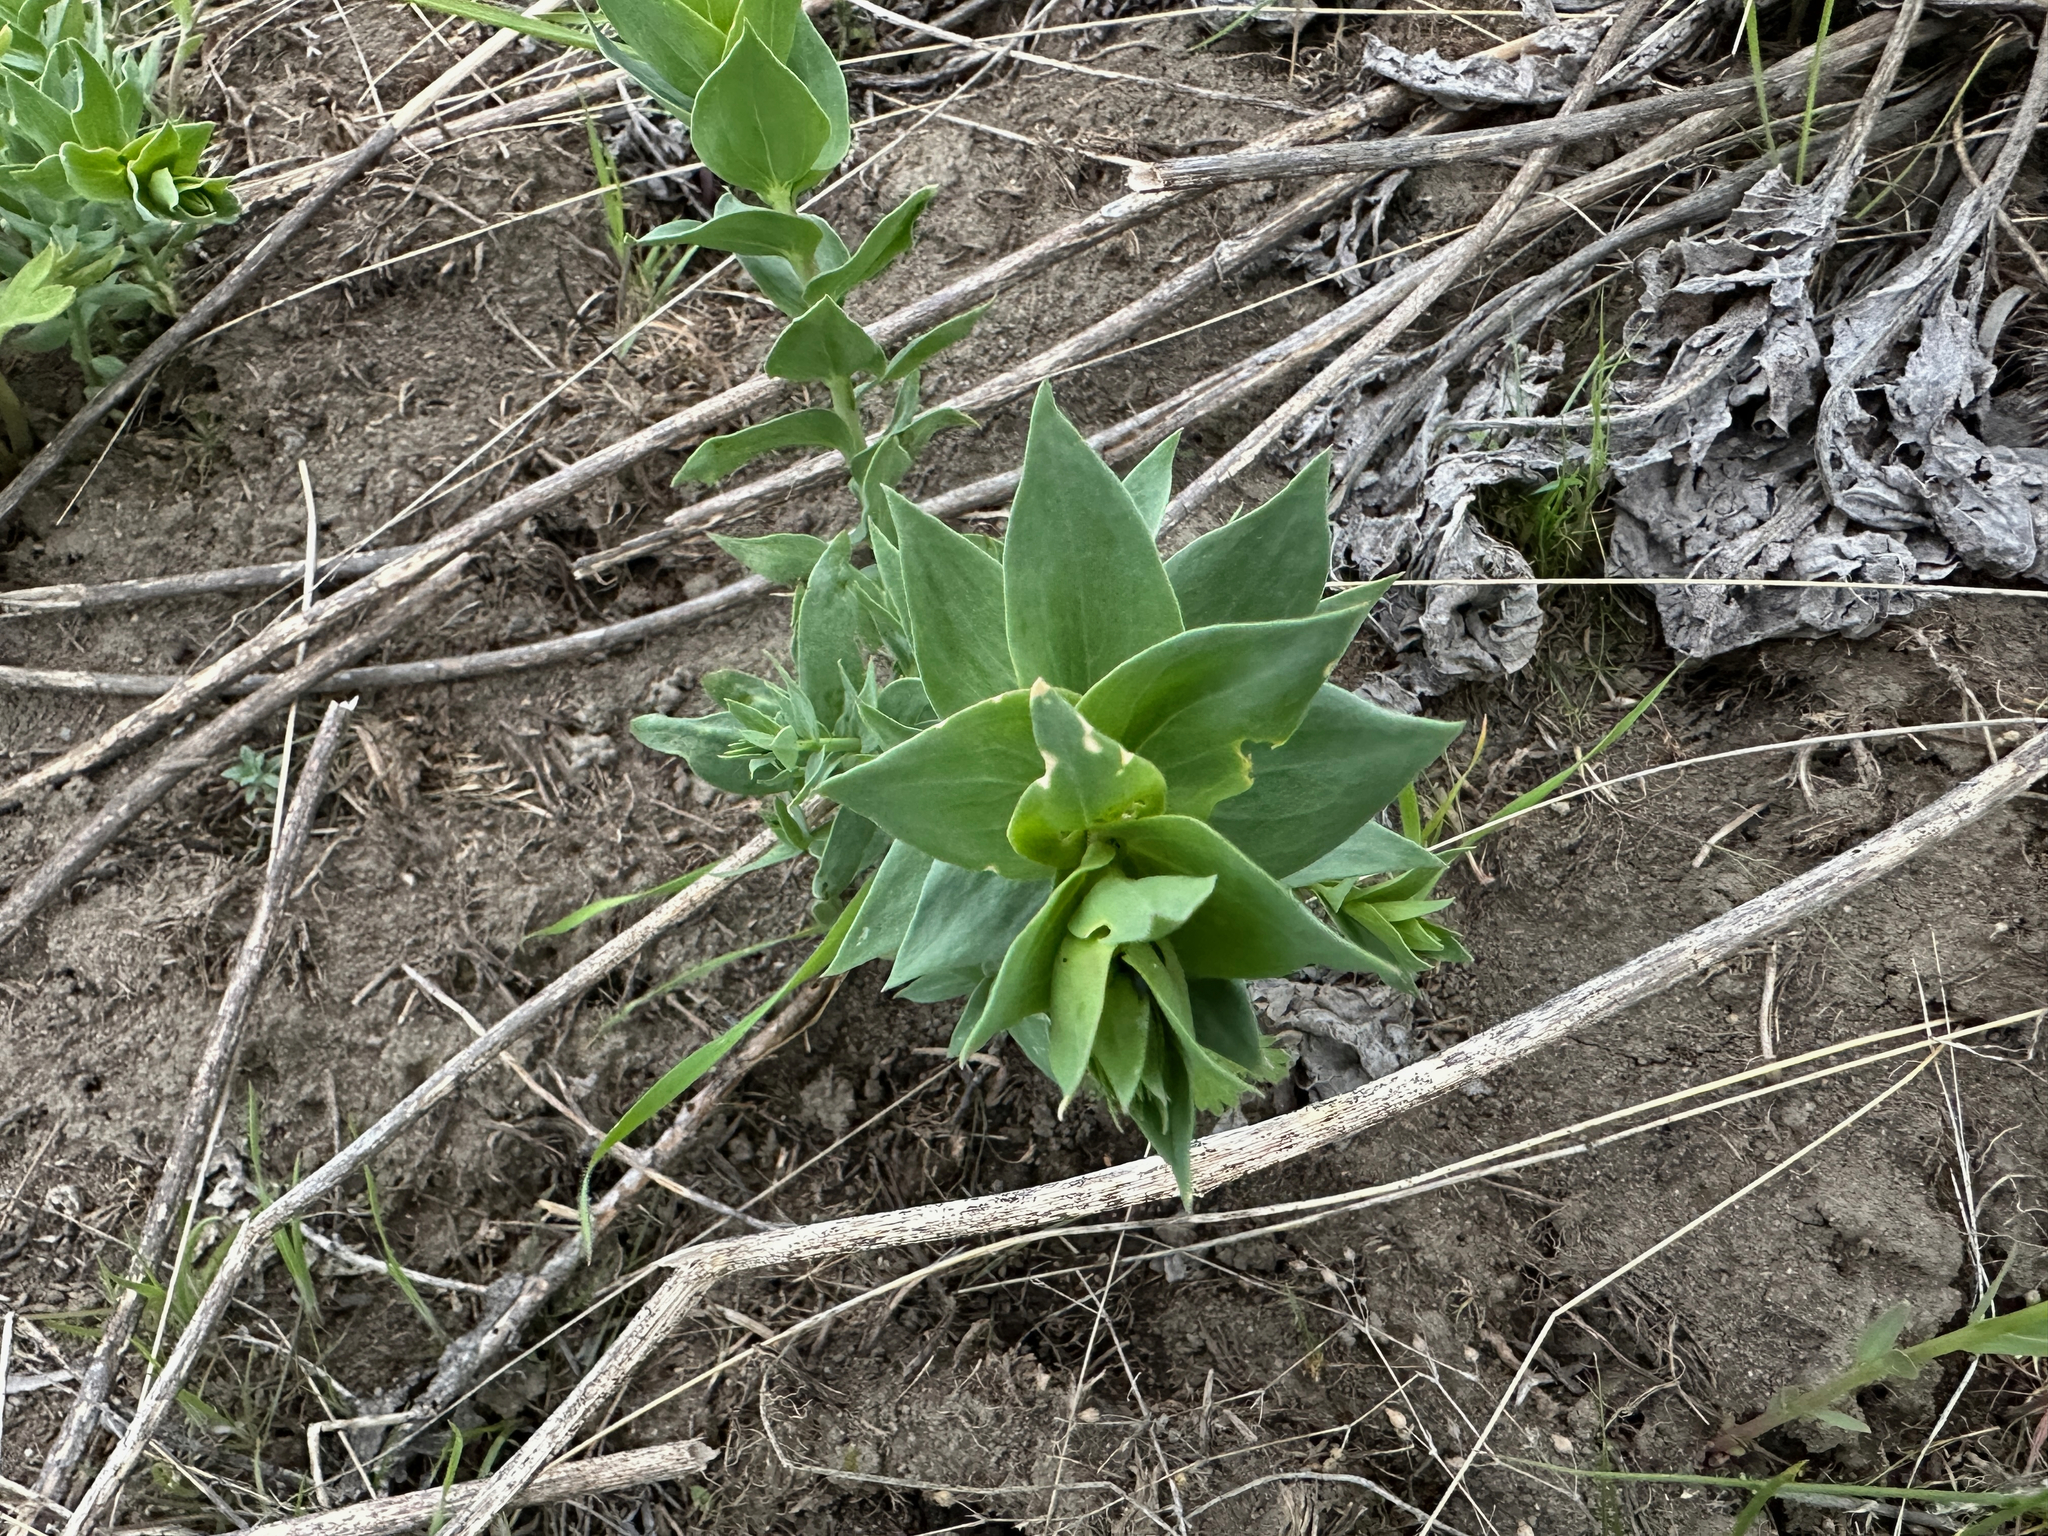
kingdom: Plantae
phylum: Tracheophyta
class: Magnoliopsida
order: Lamiales
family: Plantaginaceae
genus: Linaria
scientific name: Linaria dalmatica
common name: Dalmatian toadflax
